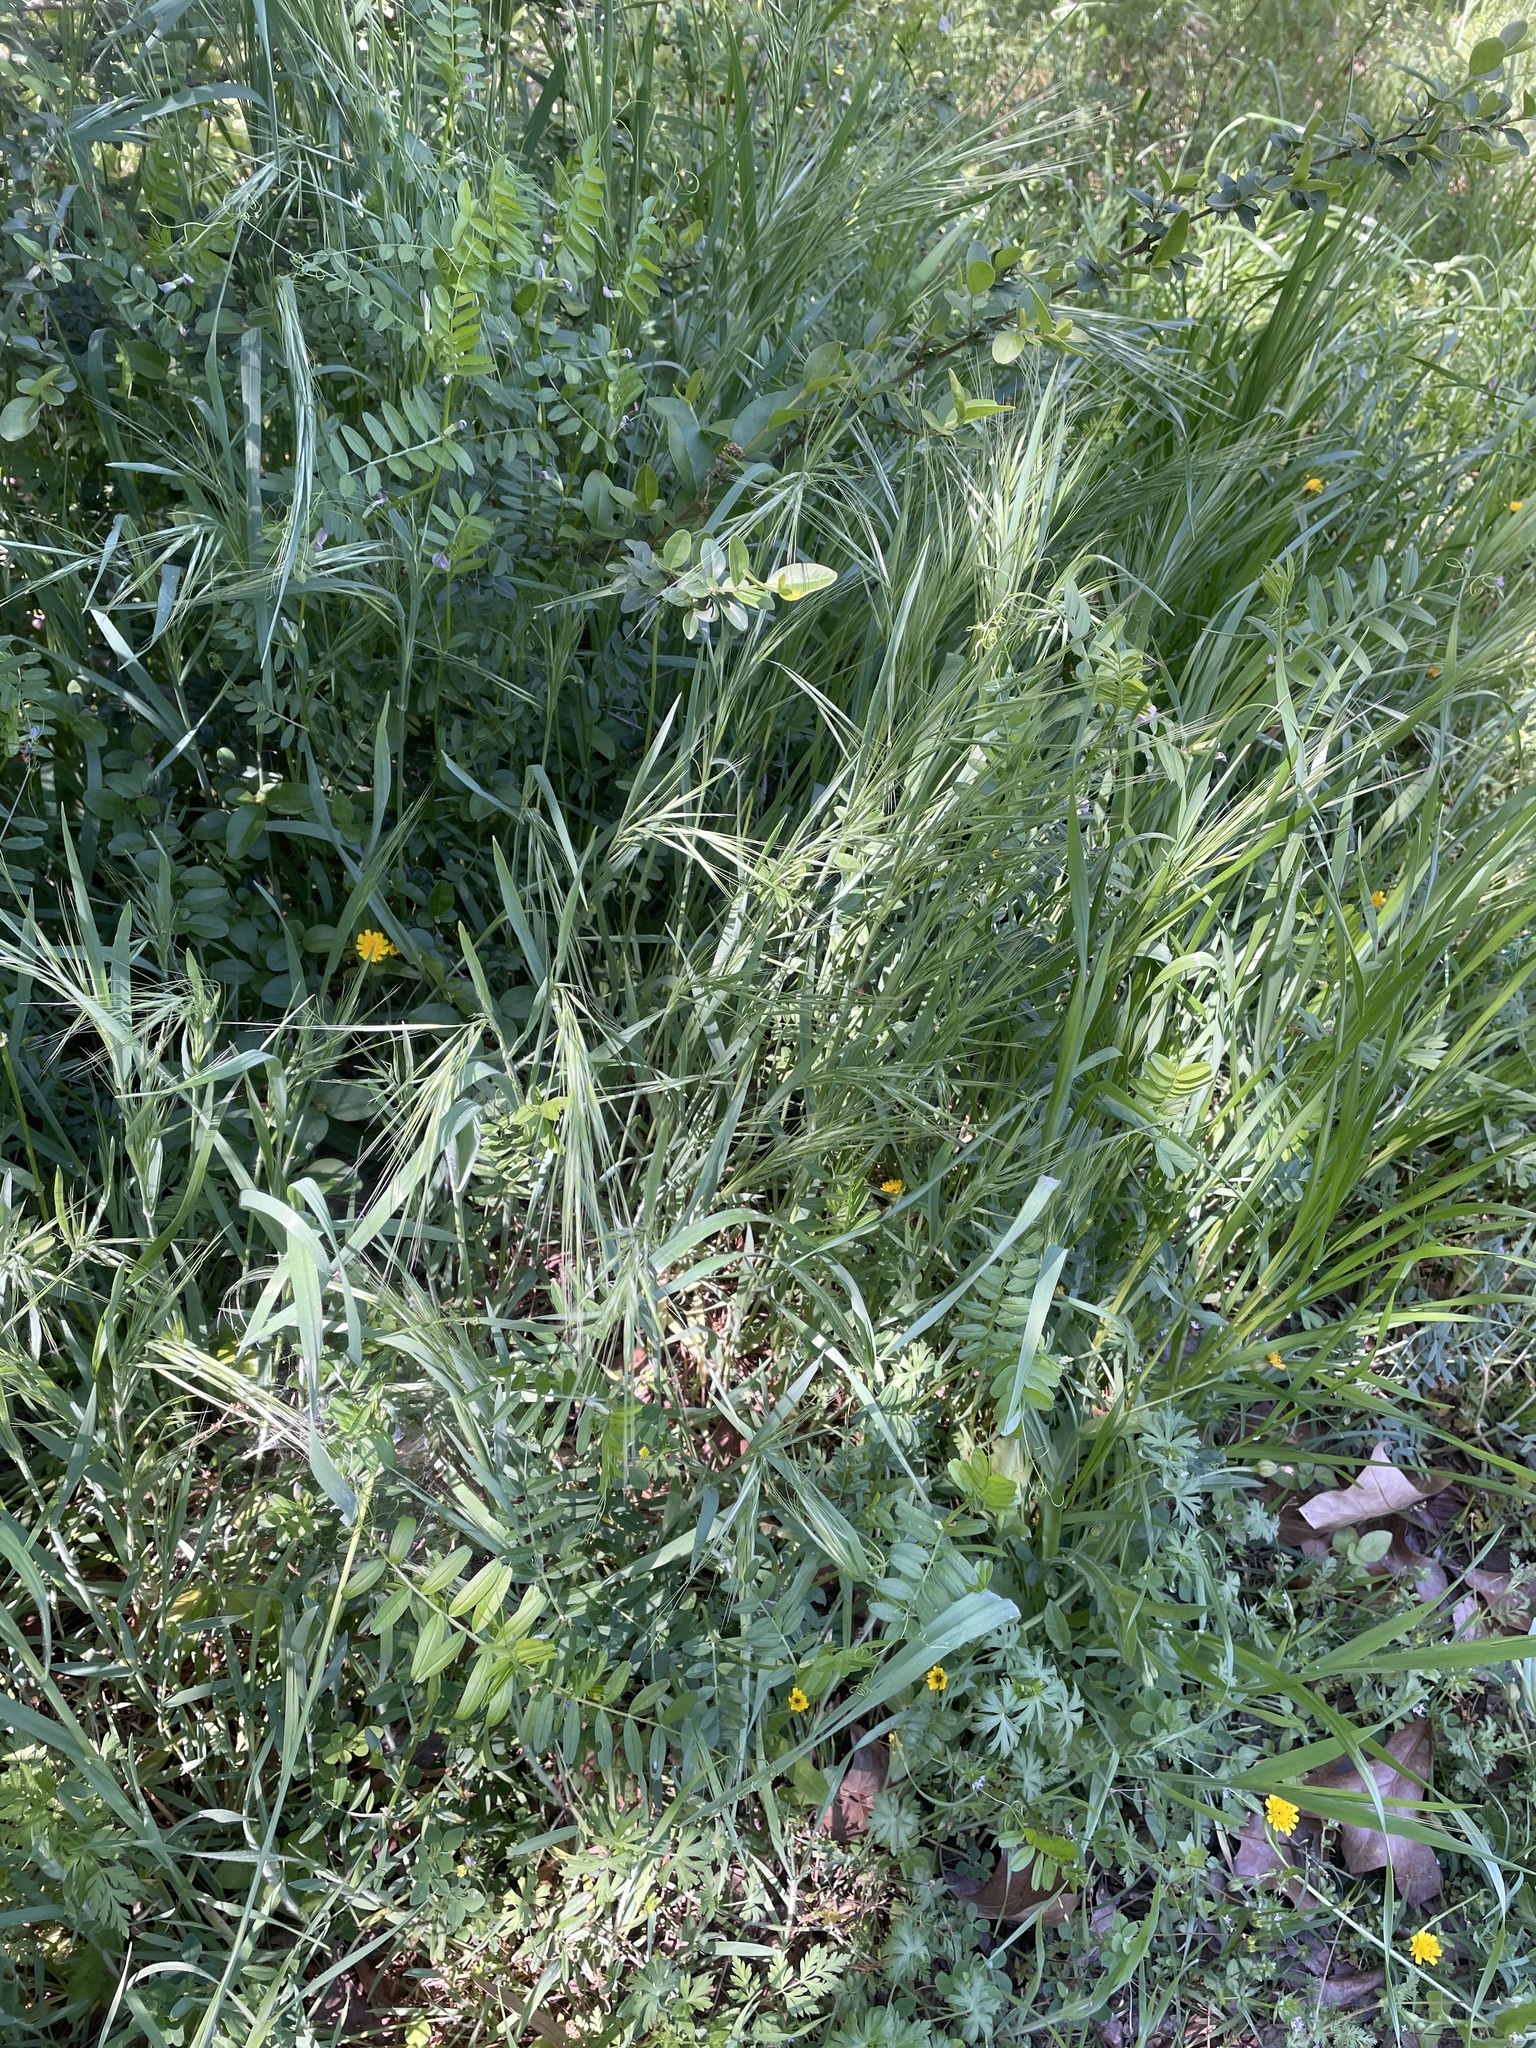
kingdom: Plantae
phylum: Tracheophyta
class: Liliopsida
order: Poales
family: Poaceae
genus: Bromus
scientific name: Bromus diandrus
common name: Ripgut brome
